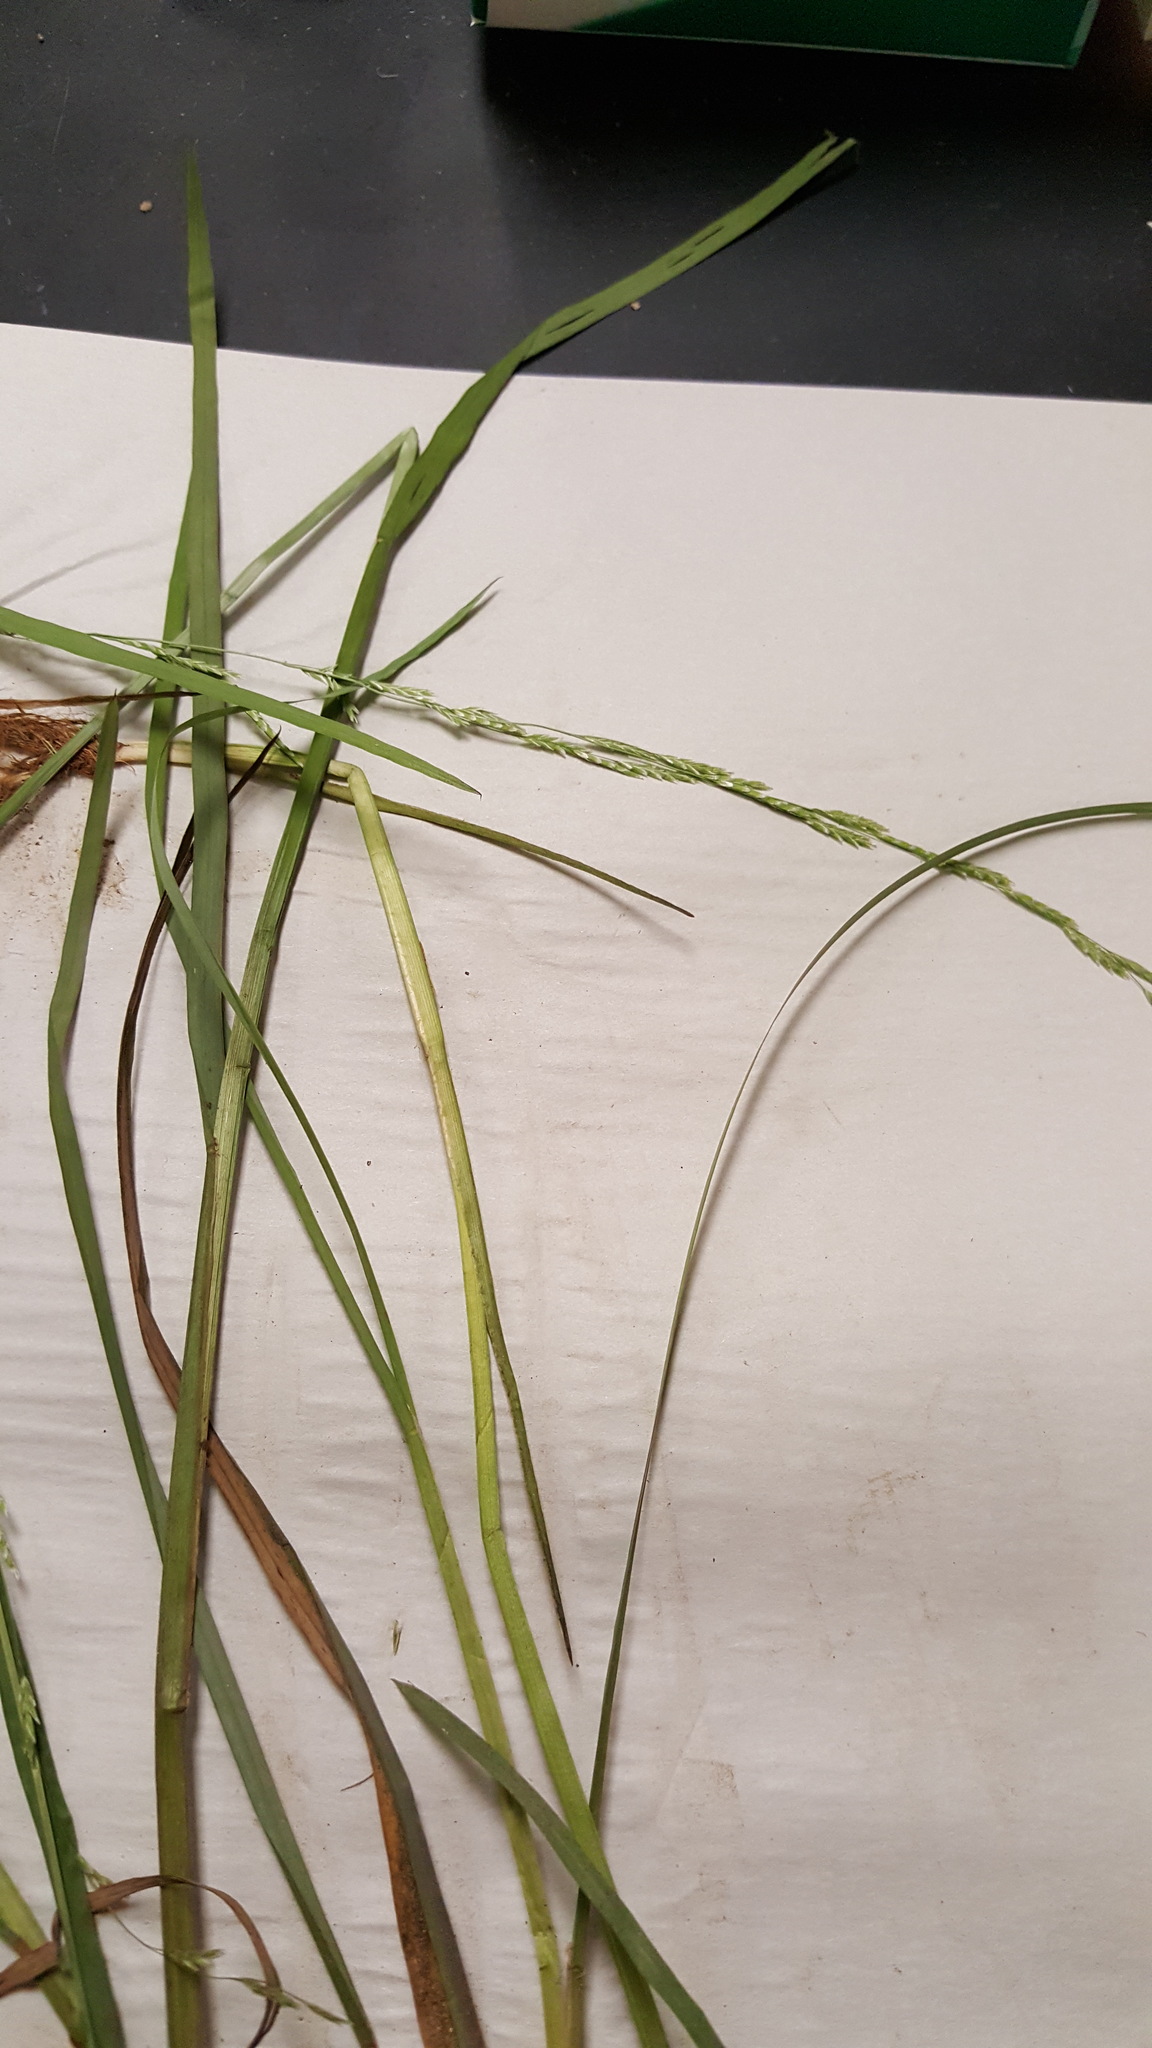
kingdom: Plantae
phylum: Tracheophyta
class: Liliopsida
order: Poales
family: Poaceae
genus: Glyceria
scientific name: Glyceria borealis
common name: Boreal glyceria
